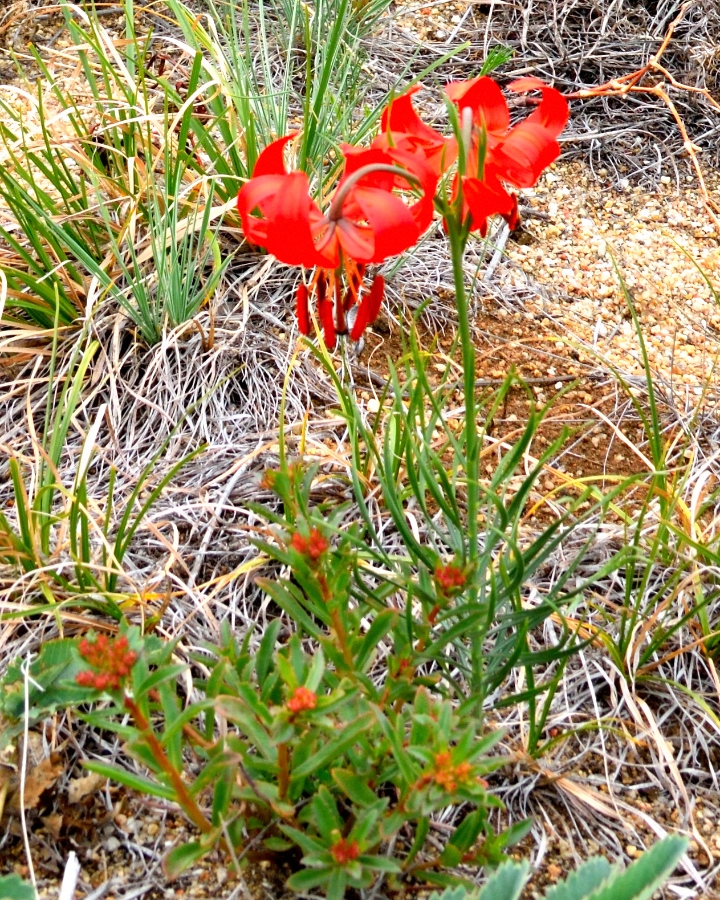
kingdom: Plantae
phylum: Tracheophyta
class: Liliopsida
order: Liliales
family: Liliaceae
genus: Lilium
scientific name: Lilium pumilum
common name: Coral lily
